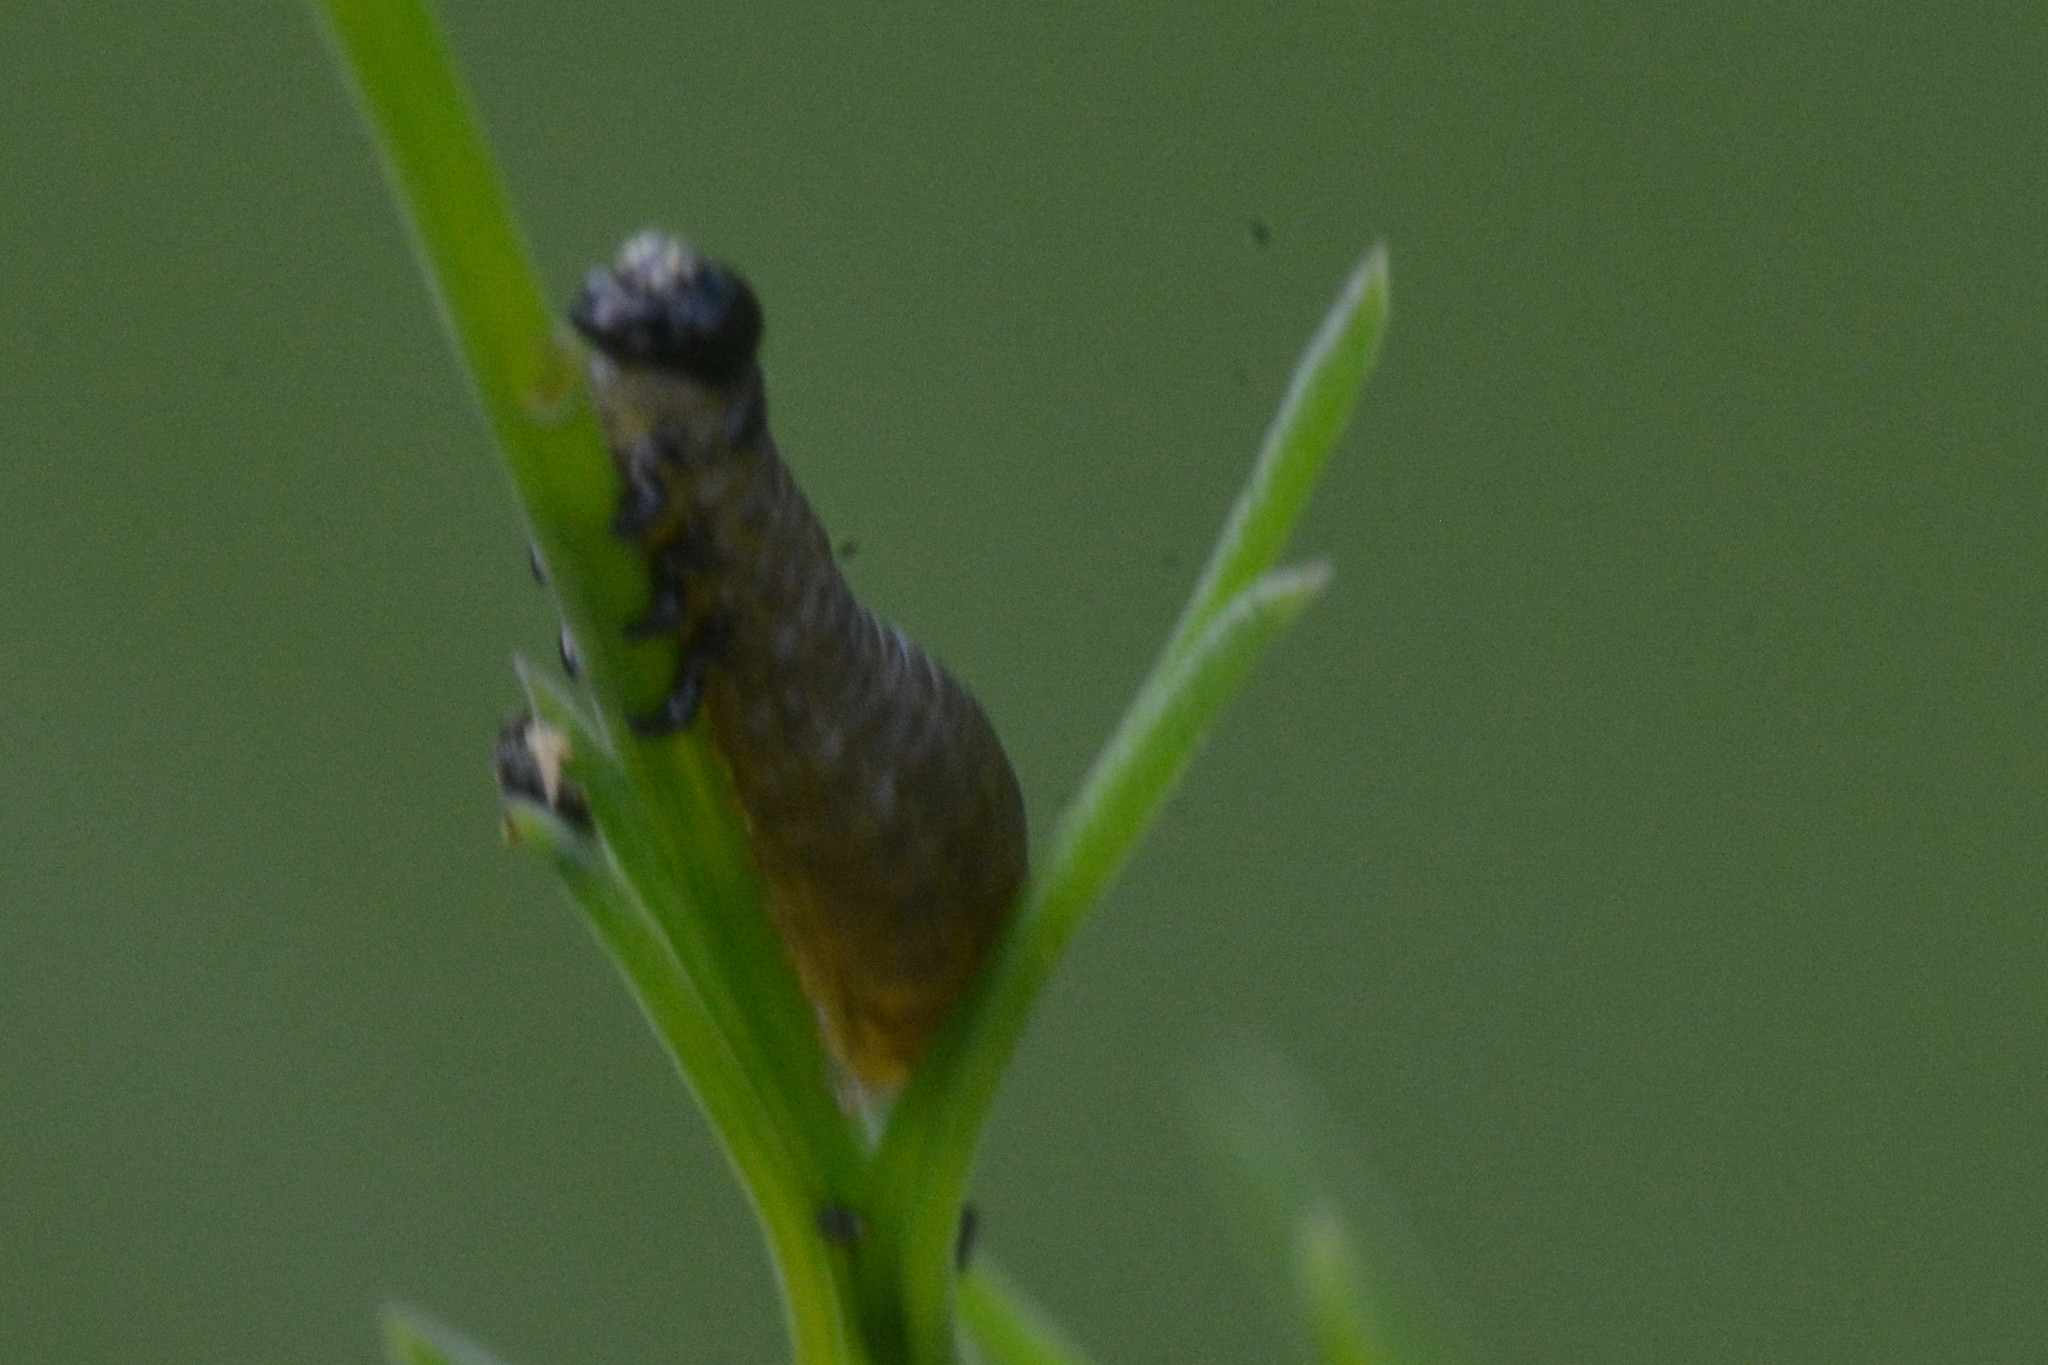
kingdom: Animalia
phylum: Arthropoda
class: Insecta
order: Coleoptera
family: Chrysomelidae
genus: Crioceris
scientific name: Crioceris asparagi
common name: Asparagus beetle
